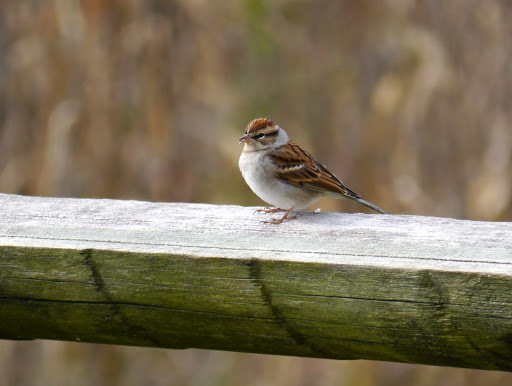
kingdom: Animalia
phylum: Chordata
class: Aves
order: Passeriformes
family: Passerellidae
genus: Spizella
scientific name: Spizella passerina
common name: Chipping sparrow
